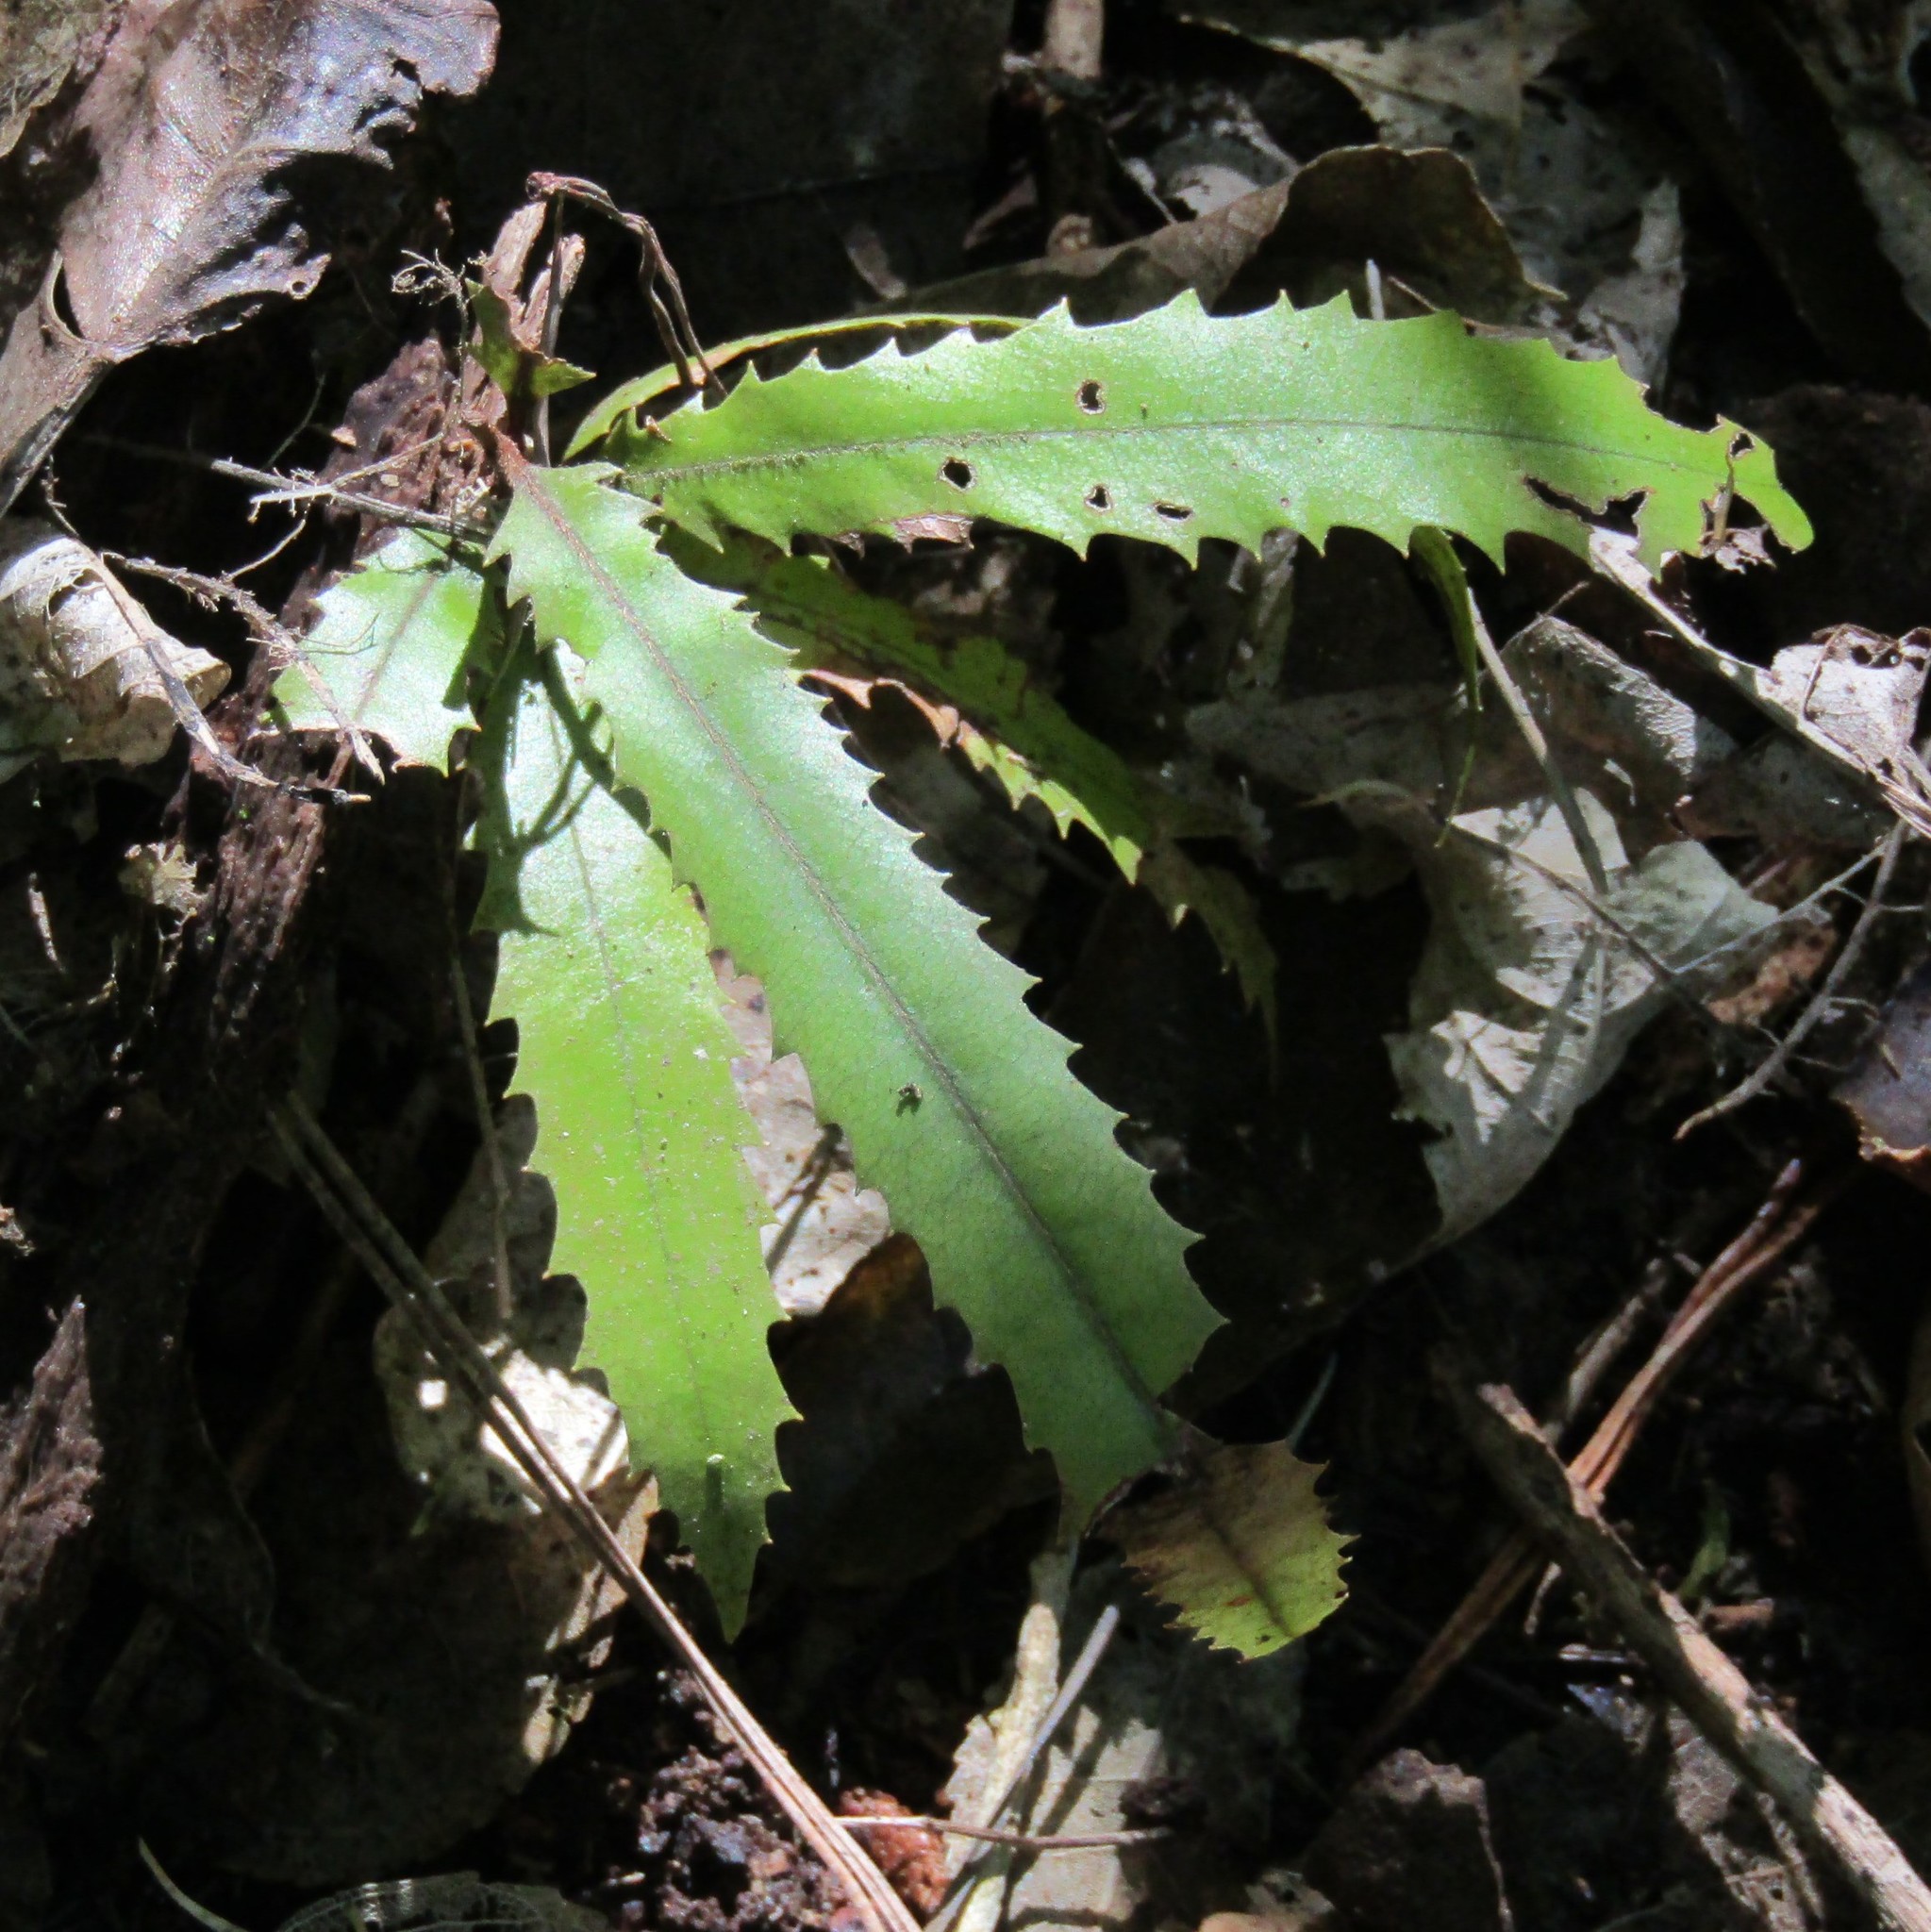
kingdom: Plantae
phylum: Tracheophyta
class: Magnoliopsida
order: Proteales
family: Proteaceae
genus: Knightia
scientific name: Knightia excelsa
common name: New zealand-honeysuckle
